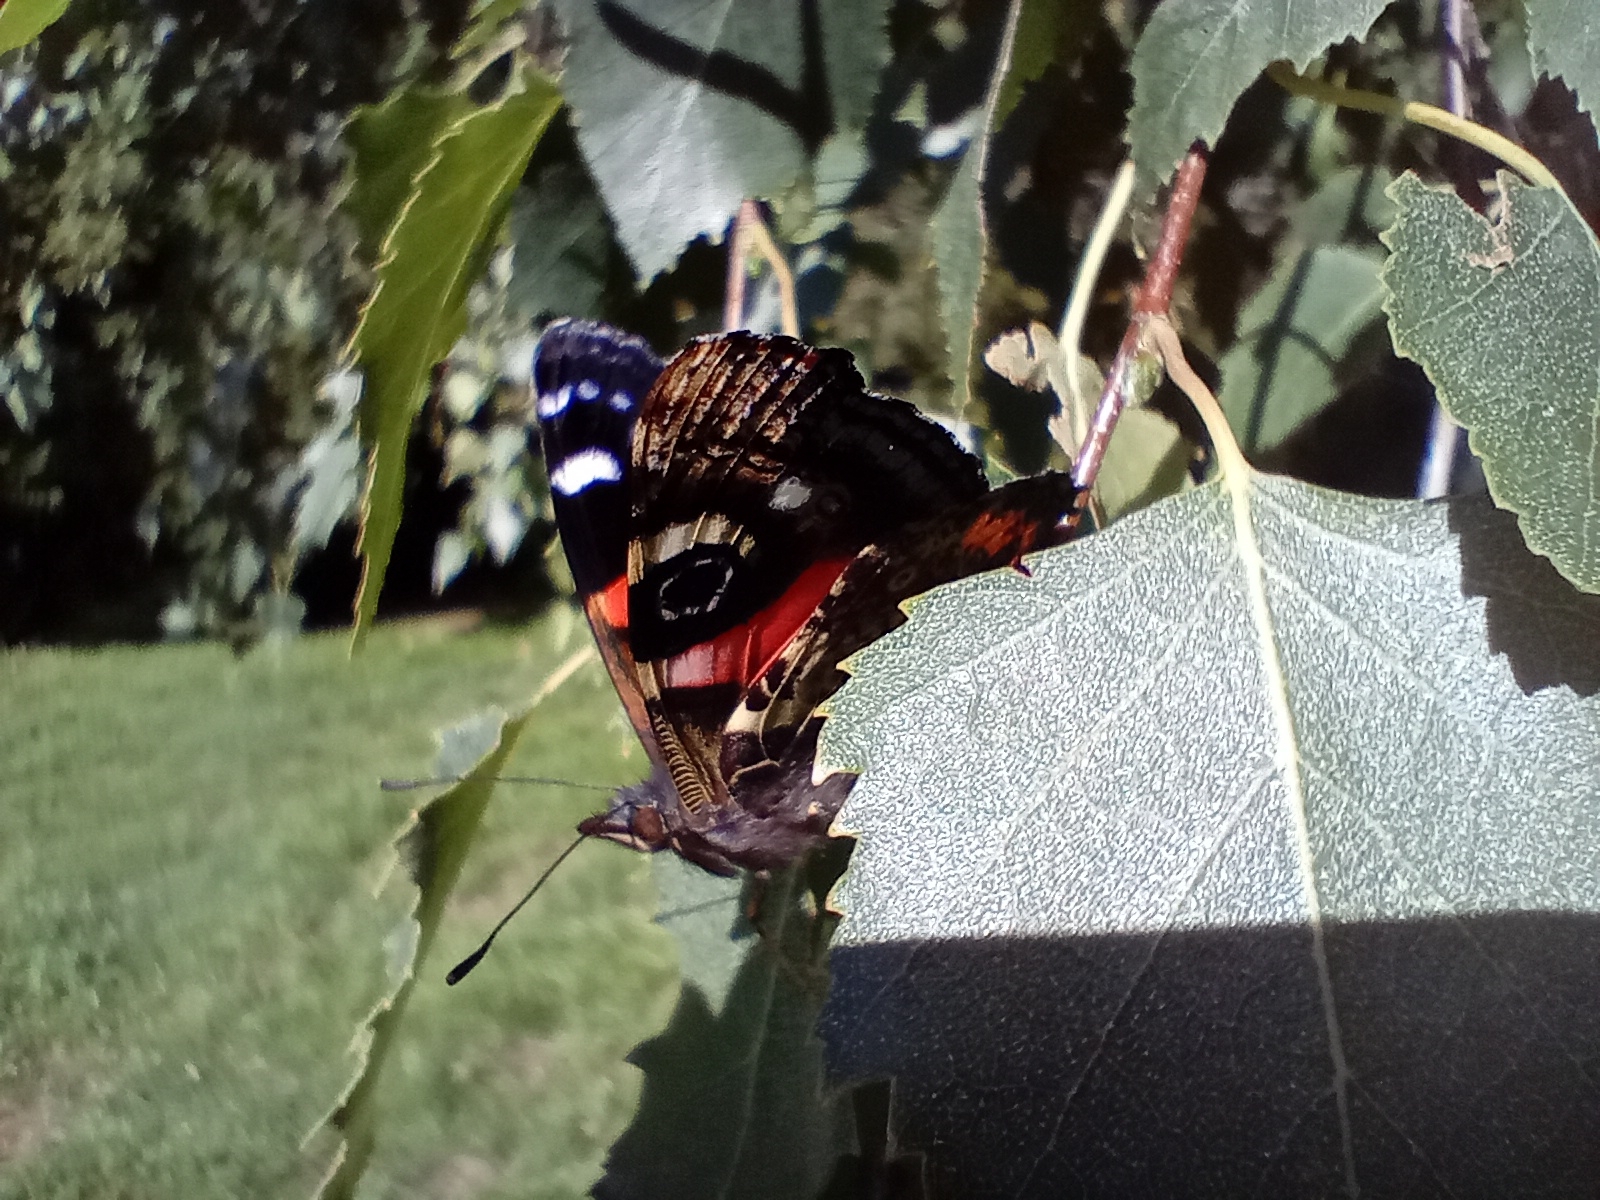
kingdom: Animalia
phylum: Arthropoda
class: Insecta
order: Lepidoptera
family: Nymphalidae
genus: Vanessa
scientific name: Vanessa gonerilla
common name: New zealand red admiral
